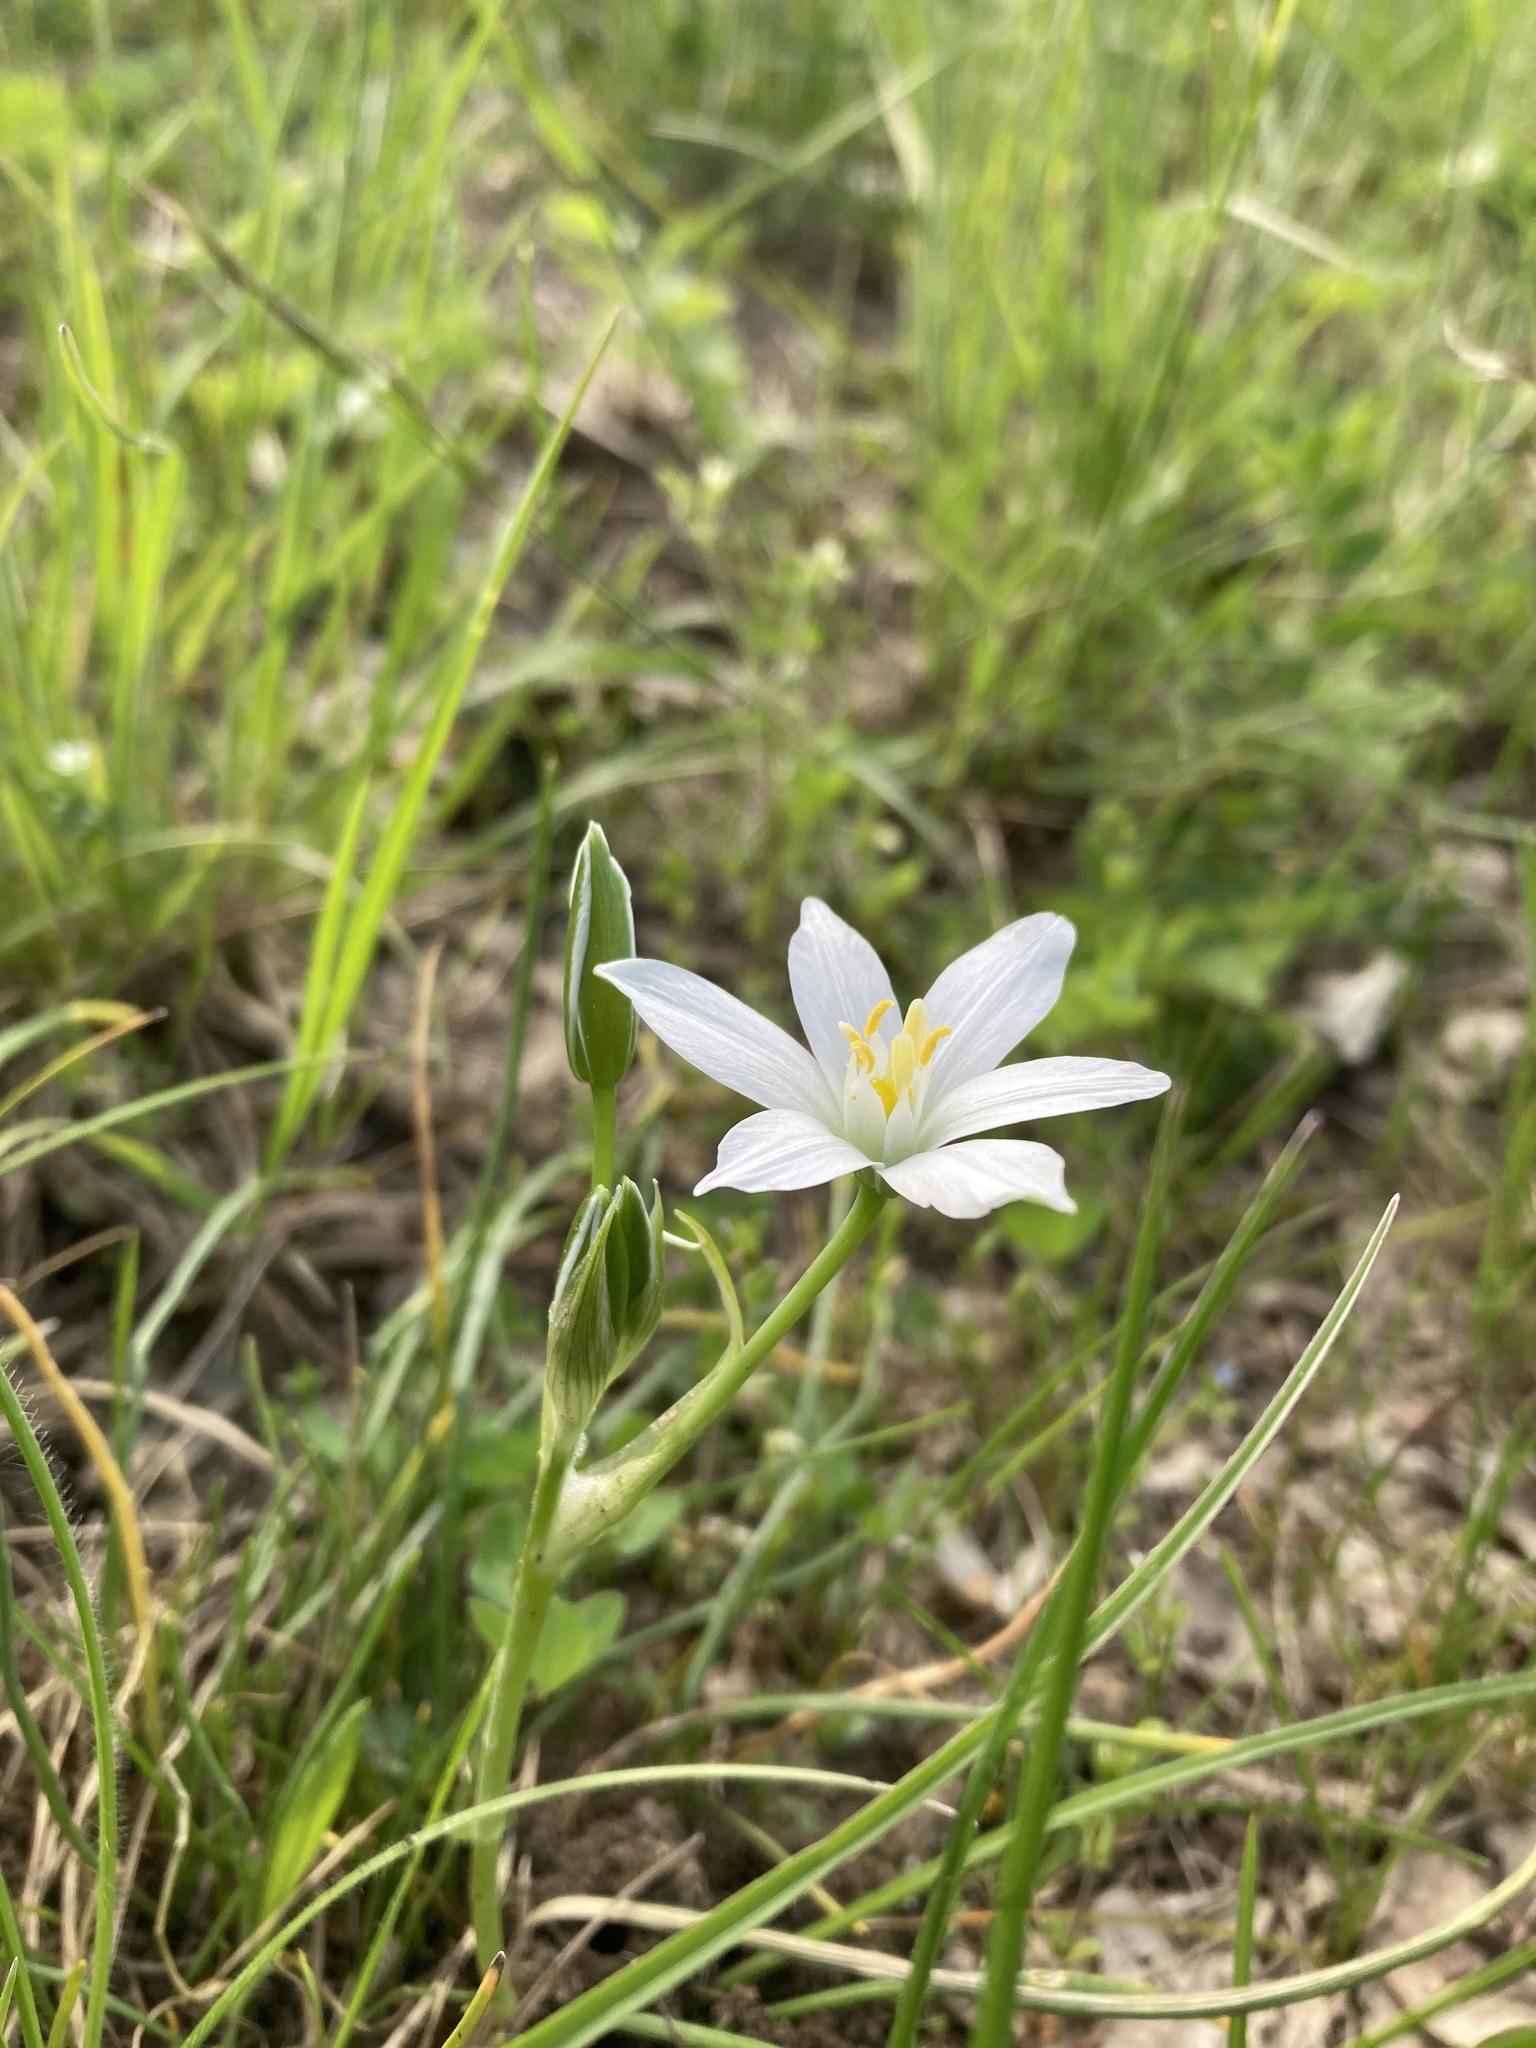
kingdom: Plantae
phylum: Tracheophyta
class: Liliopsida
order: Asparagales
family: Asparagaceae
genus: Ornithogalum
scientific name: Ornithogalum orthophyllum
